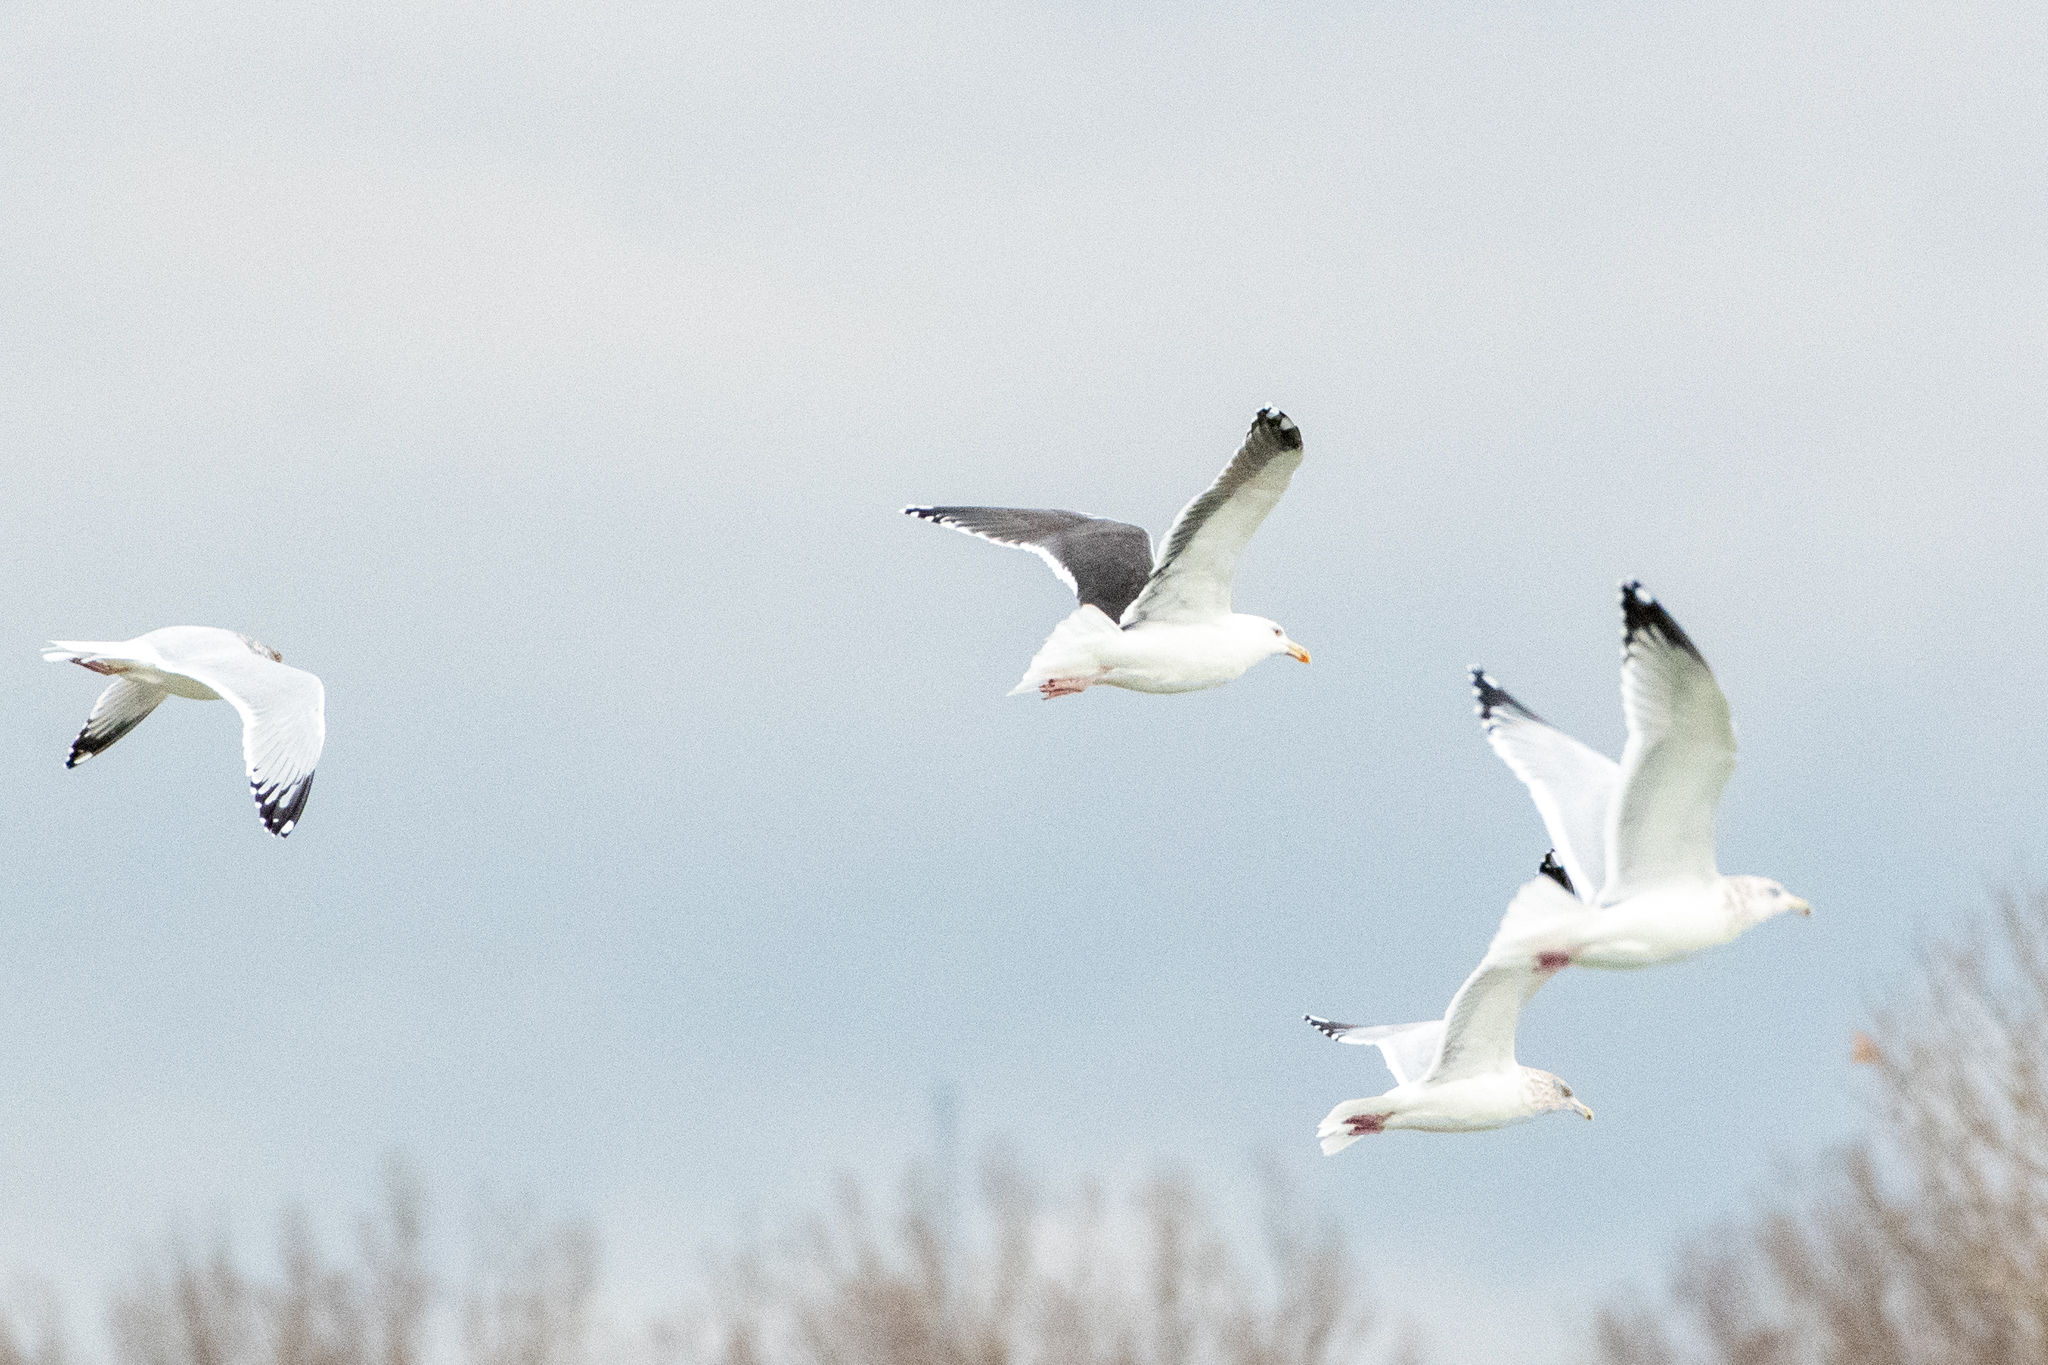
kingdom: Animalia
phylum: Chordata
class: Aves
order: Charadriiformes
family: Laridae
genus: Larus
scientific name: Larus marinus
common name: Great black-backed gull
